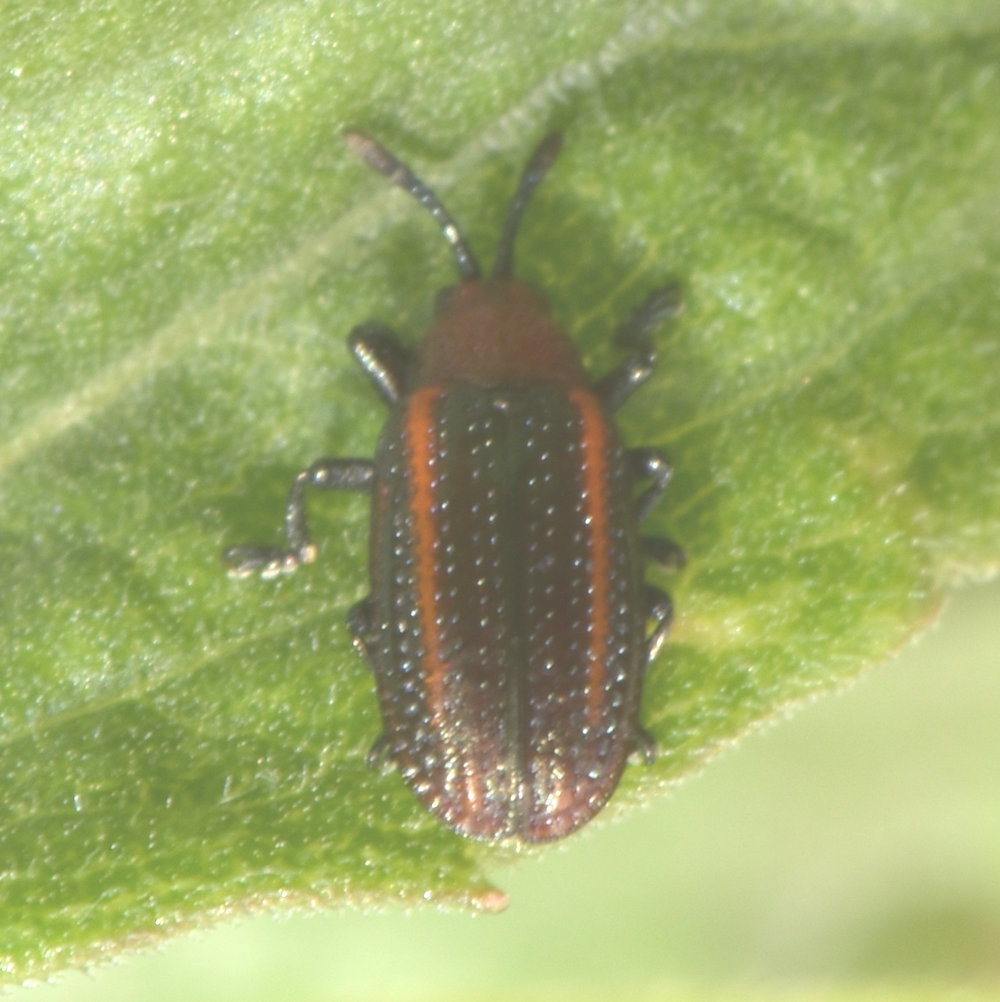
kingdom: Animalia
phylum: Arthropoda
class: Insecta
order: Coleoptera
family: Chrysomelidae
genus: Microrhopala
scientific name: Microrhopala vittata
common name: Goldenrod leaf miner beetle
